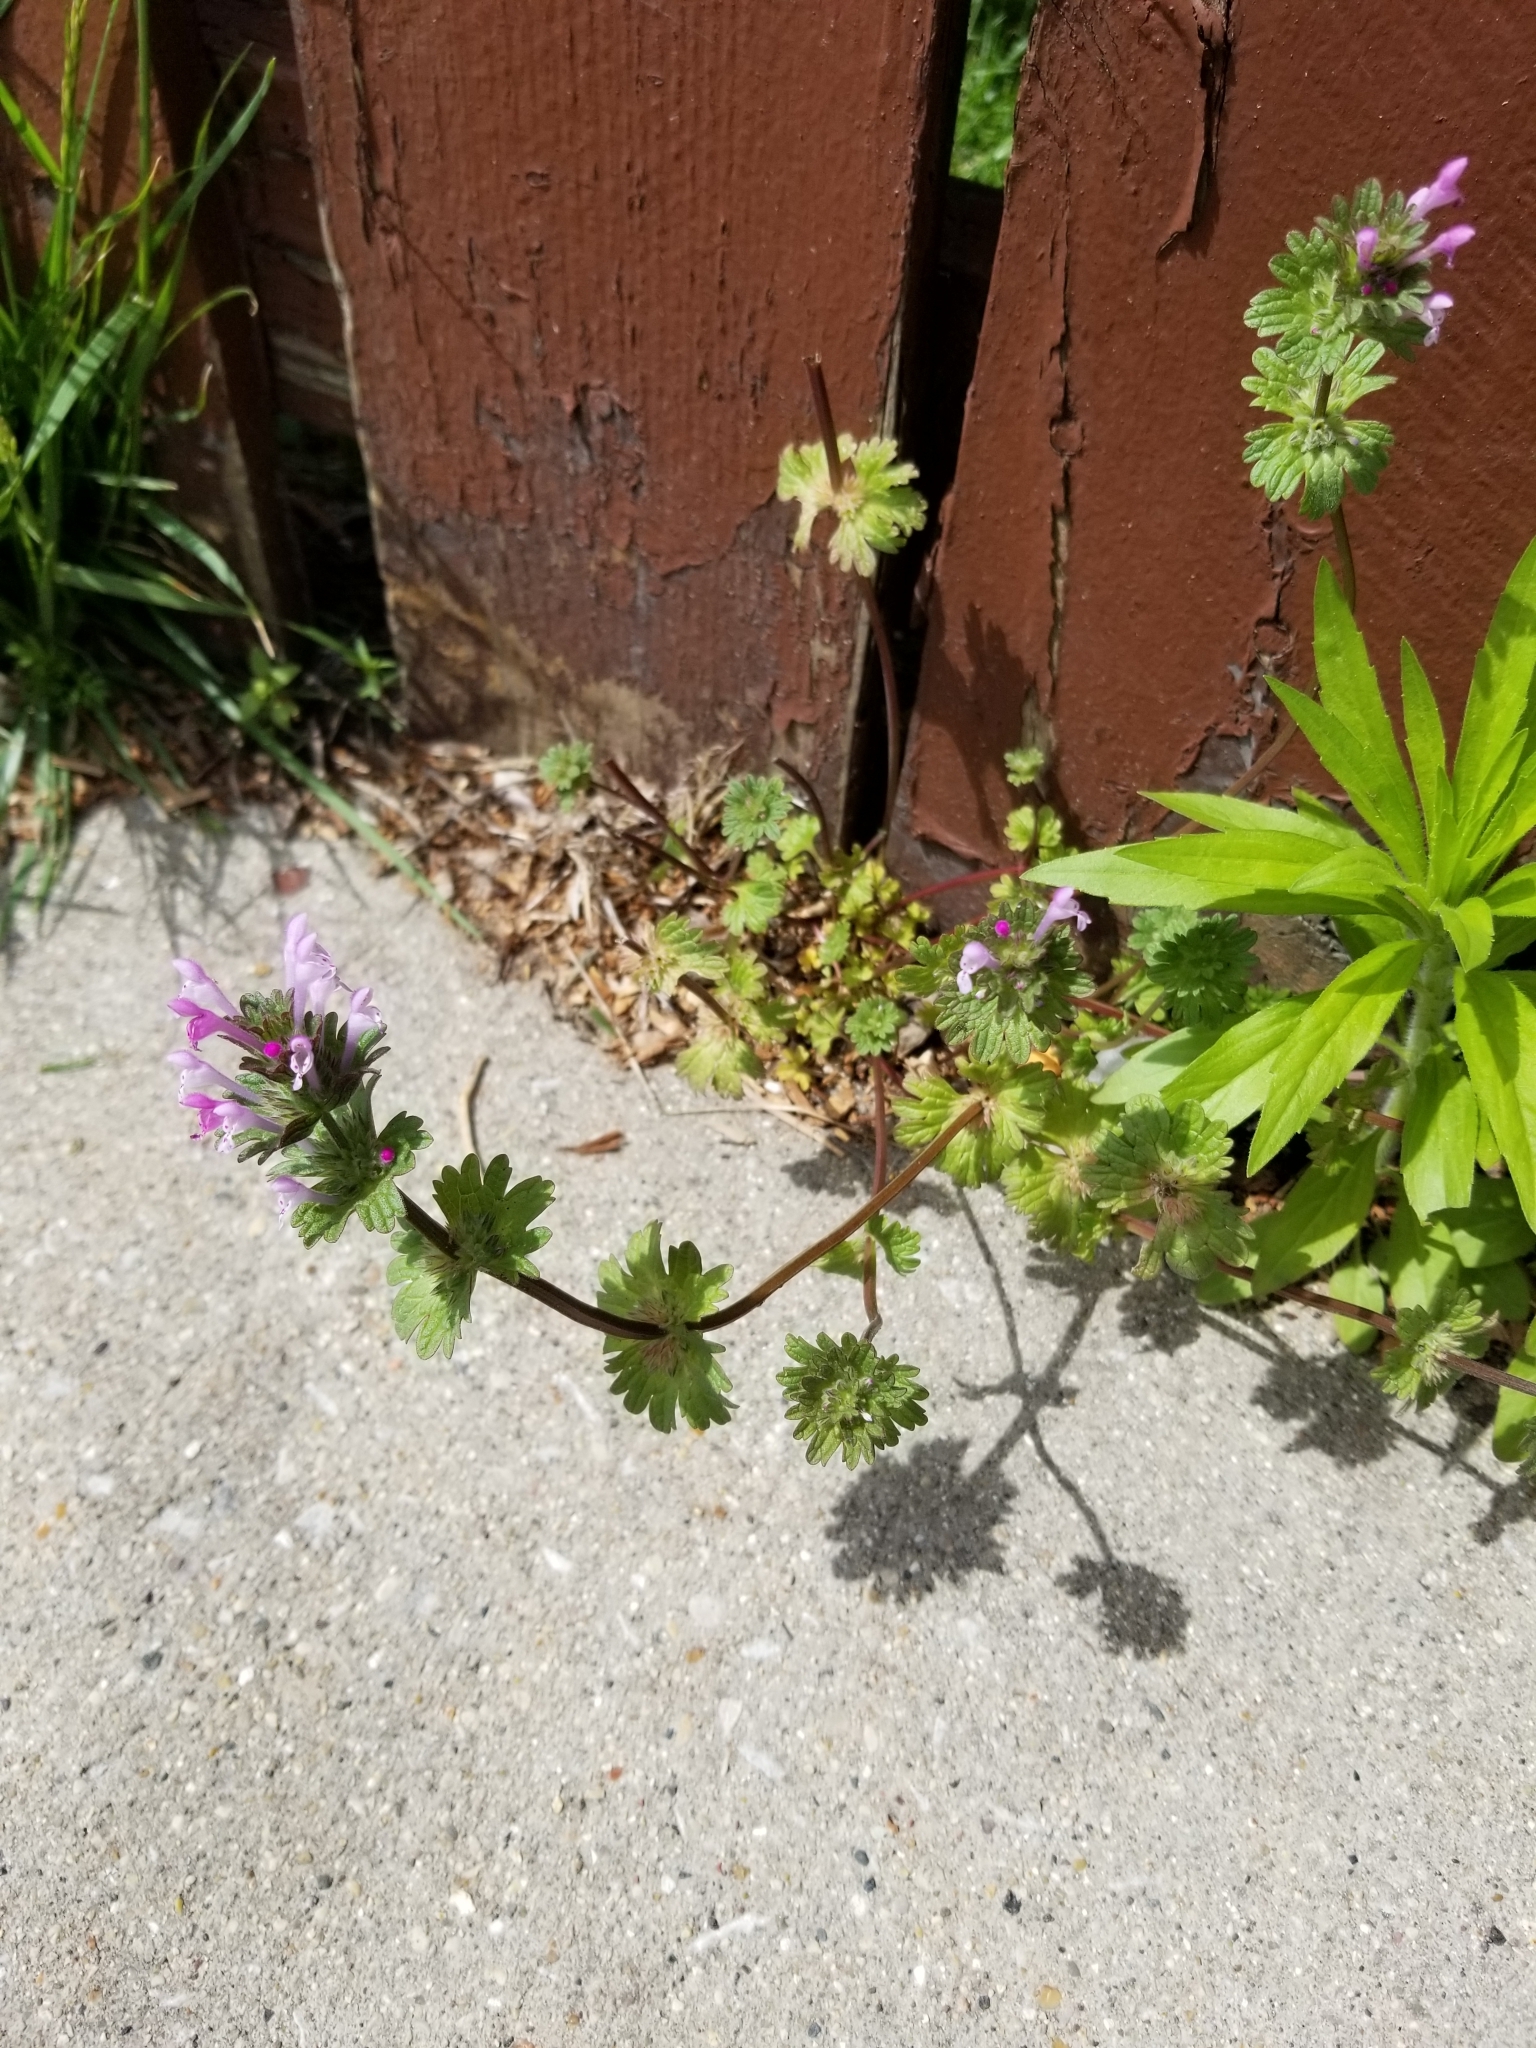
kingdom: Plantae
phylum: Tracheophyta
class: Magnoliopsida
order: Lamiales
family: Lamiaceae
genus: Lamium
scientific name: Lamium amplexicaule
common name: Henbit dead-nettle
